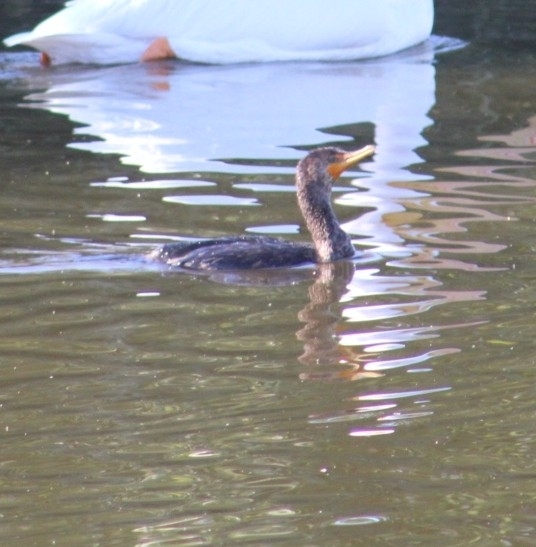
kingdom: Animalia
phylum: Chordata
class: Aves
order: Suliformes
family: Phalacrocoracidae
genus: Phalacrocorax
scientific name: Phalacrocorax auritus
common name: Double-crested cormorant
